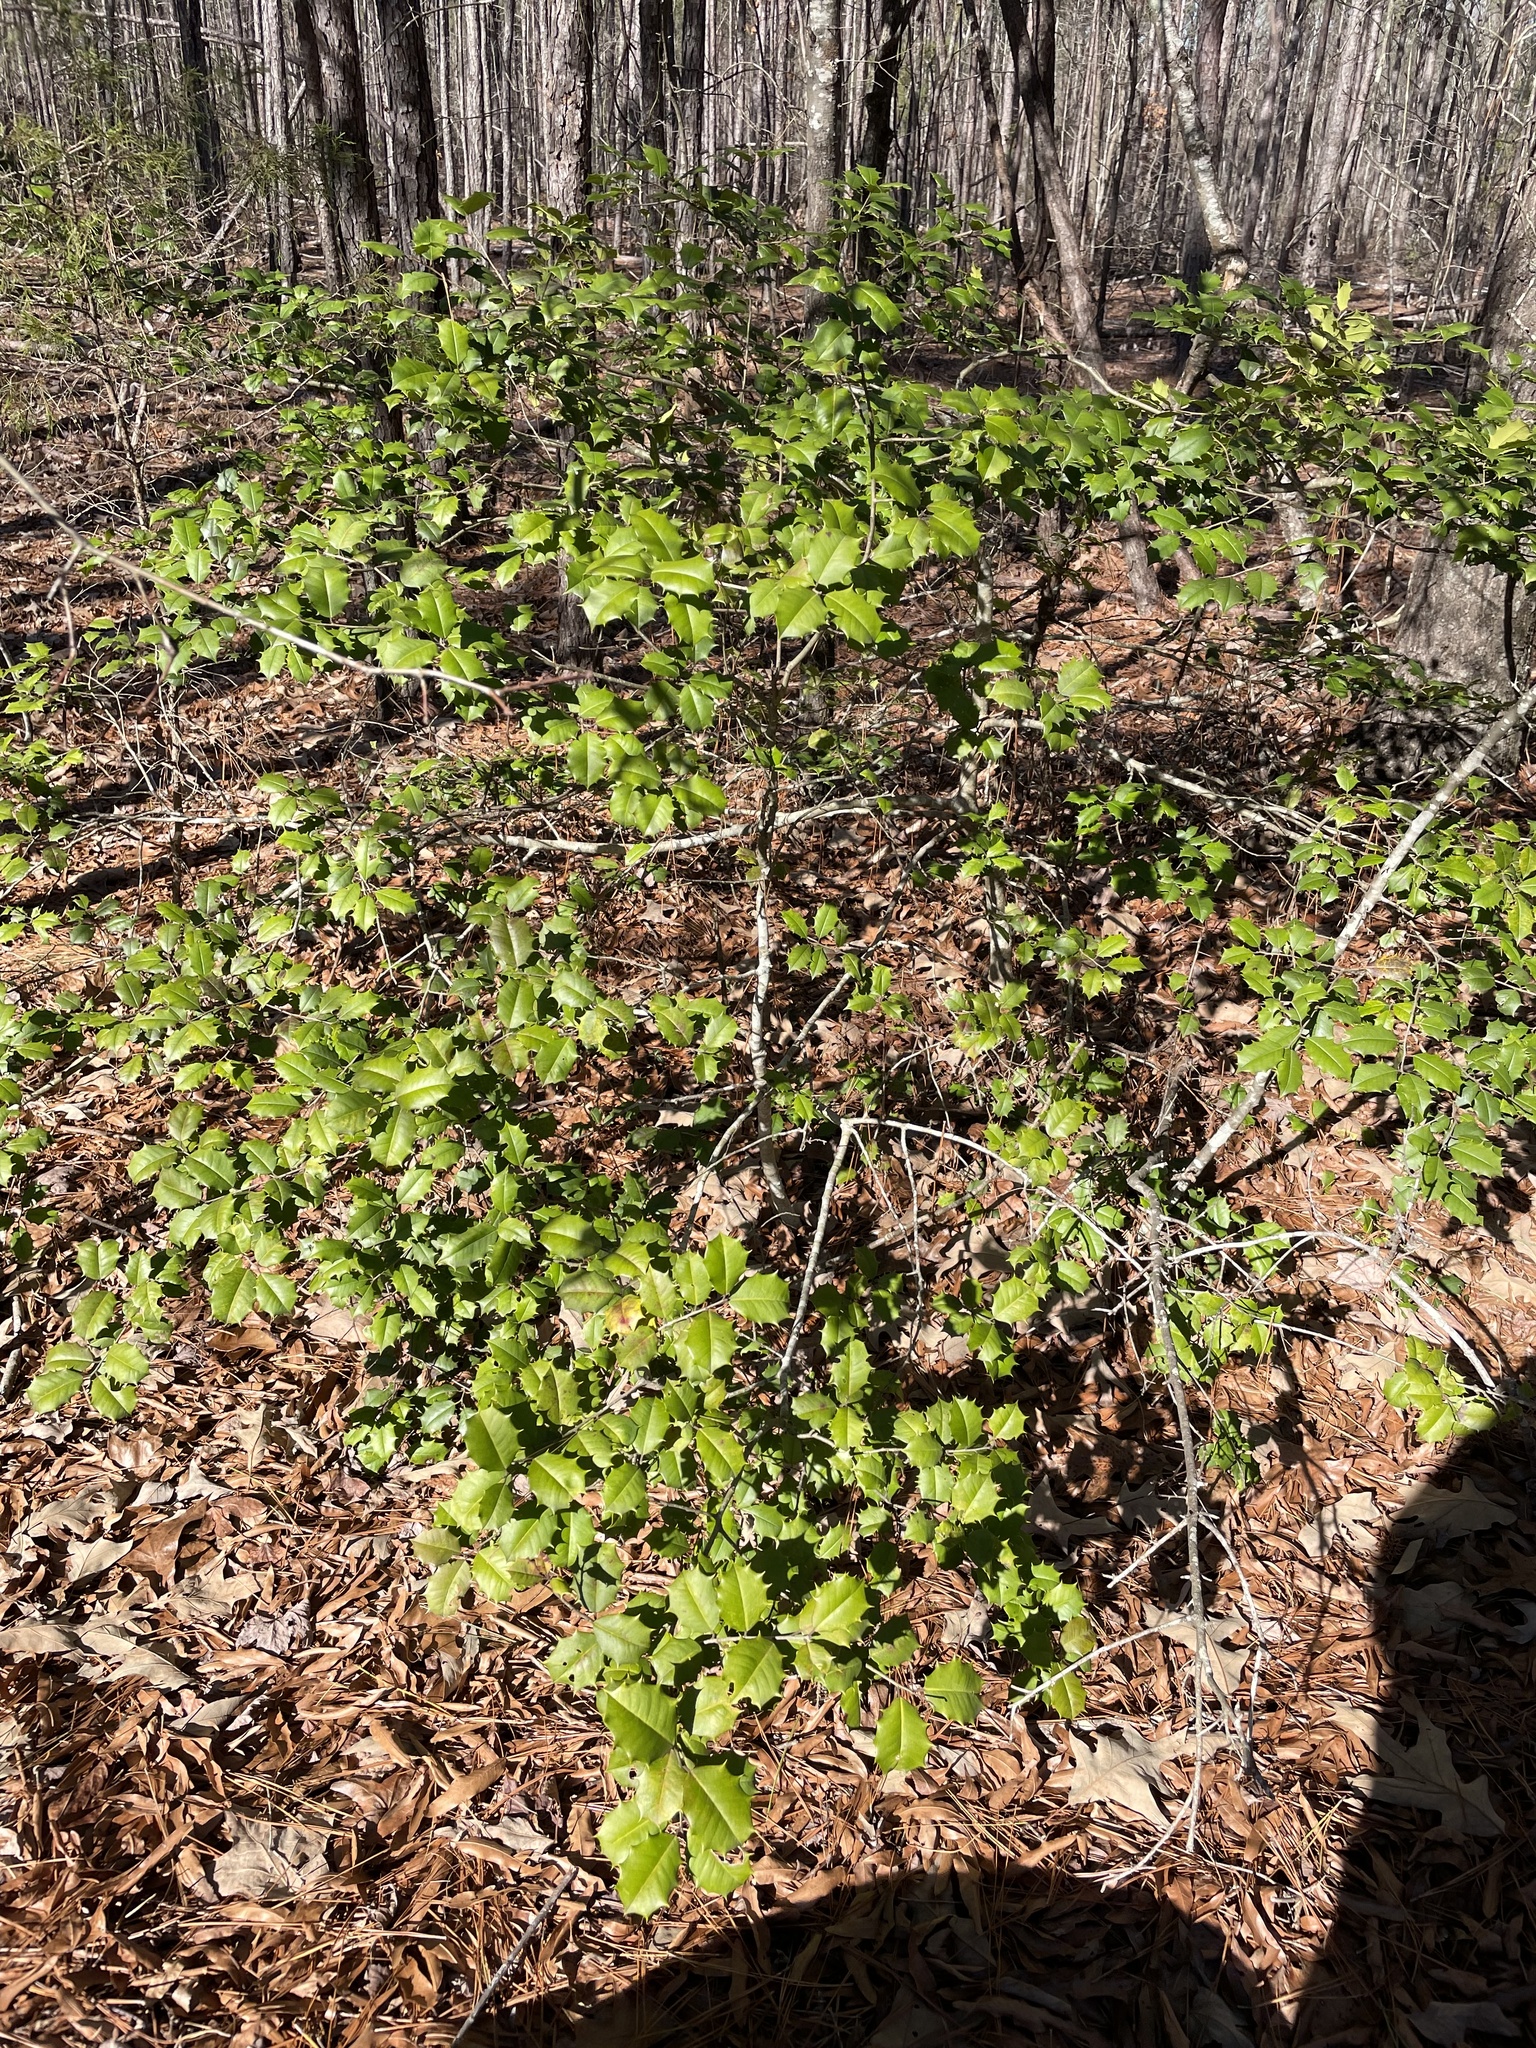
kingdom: Plantae
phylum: Tracheophyta
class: Magnoliopsida
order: Aquifoliales
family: Aquifoliaceae
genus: Ilex
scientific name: Ilex opaca
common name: American holly
